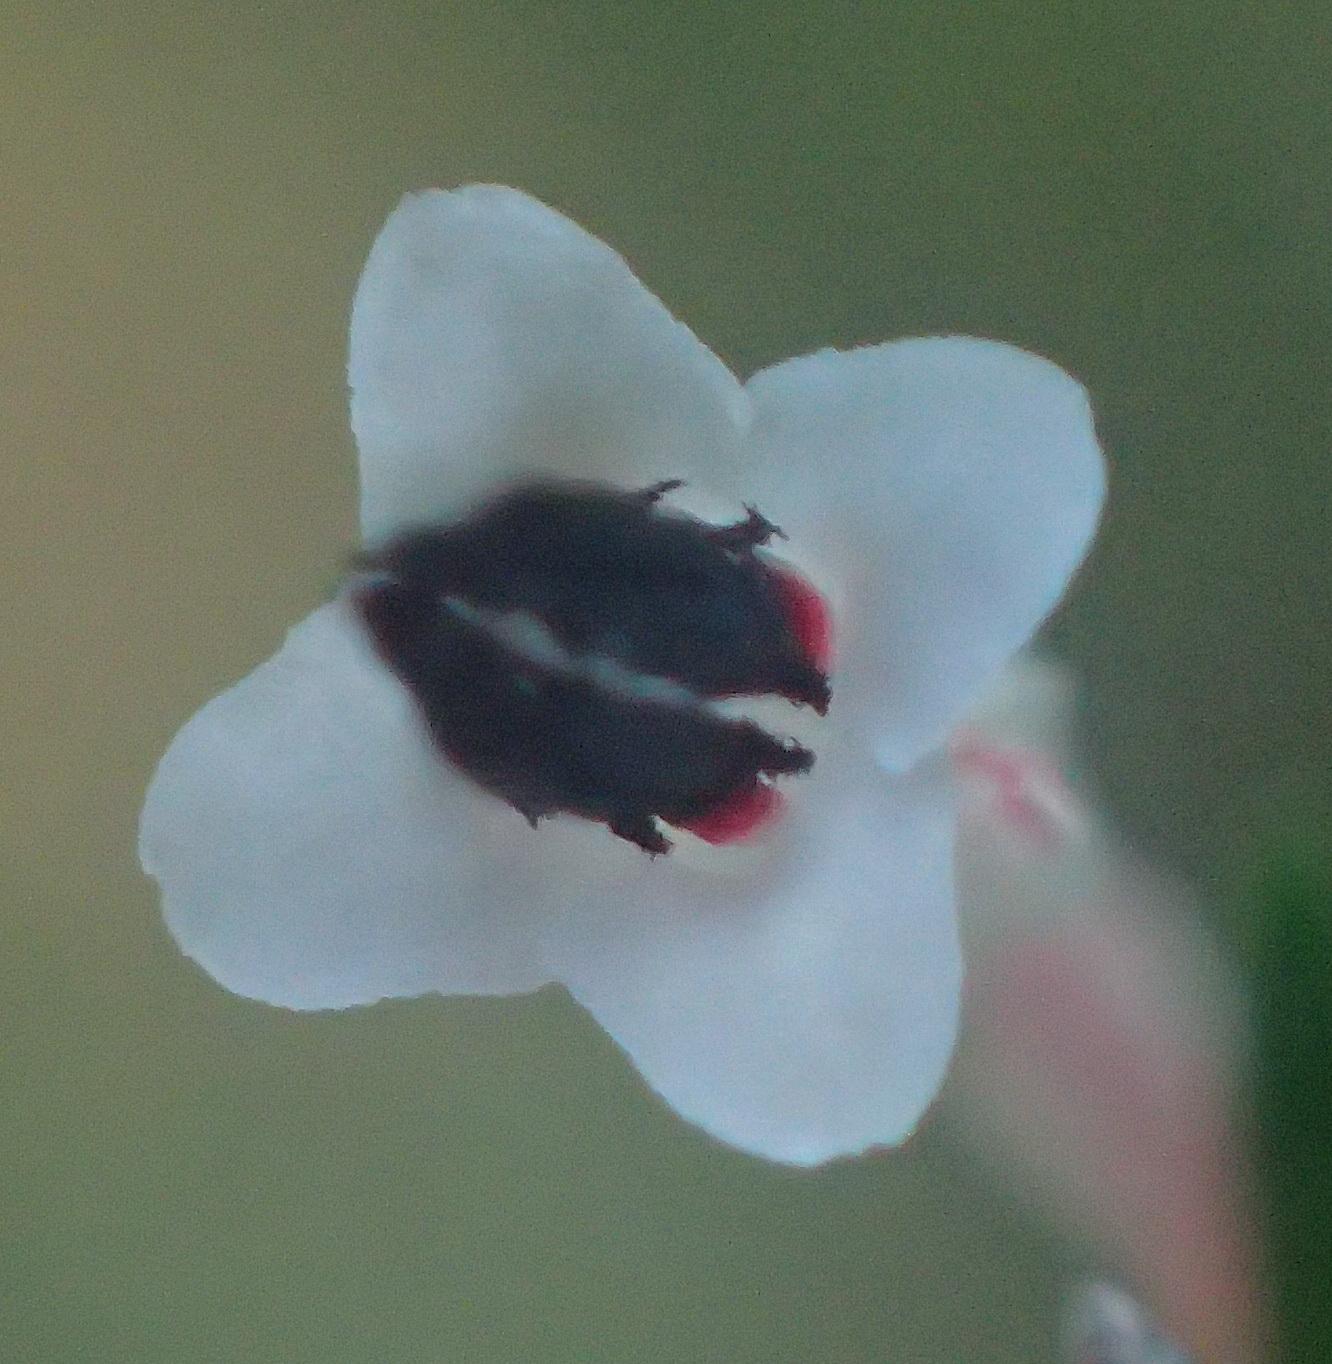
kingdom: Plantae
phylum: Tracheophyta
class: Magnoliopsida
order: Ericales
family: Ericaceae
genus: Erica
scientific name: Erica fuscescens
